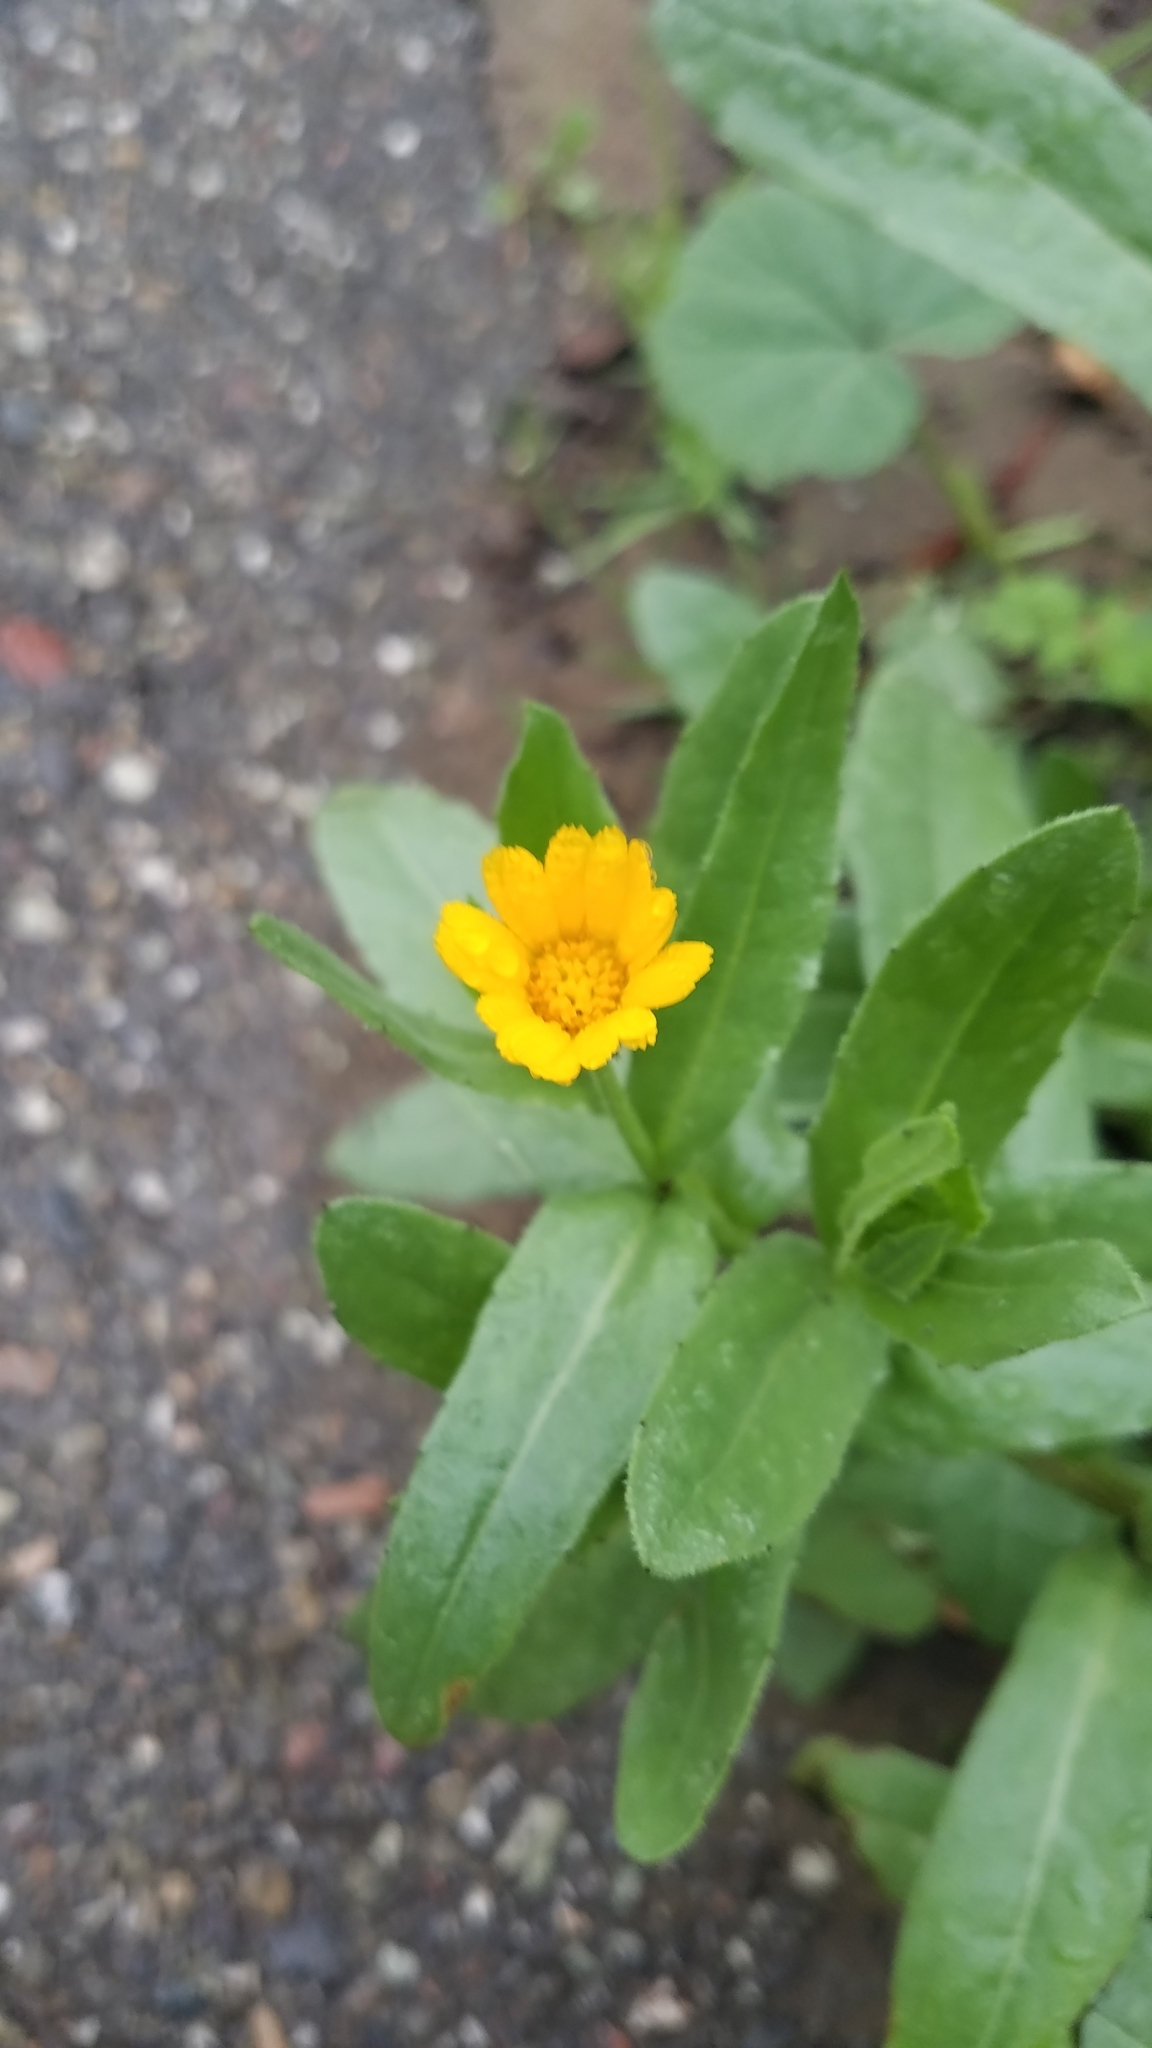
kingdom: Plantae
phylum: Tracheophyta
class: Magnoliopsida
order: Asterales
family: Asteraceae
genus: Calendula
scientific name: Calendula arvensis
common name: Field marigold
